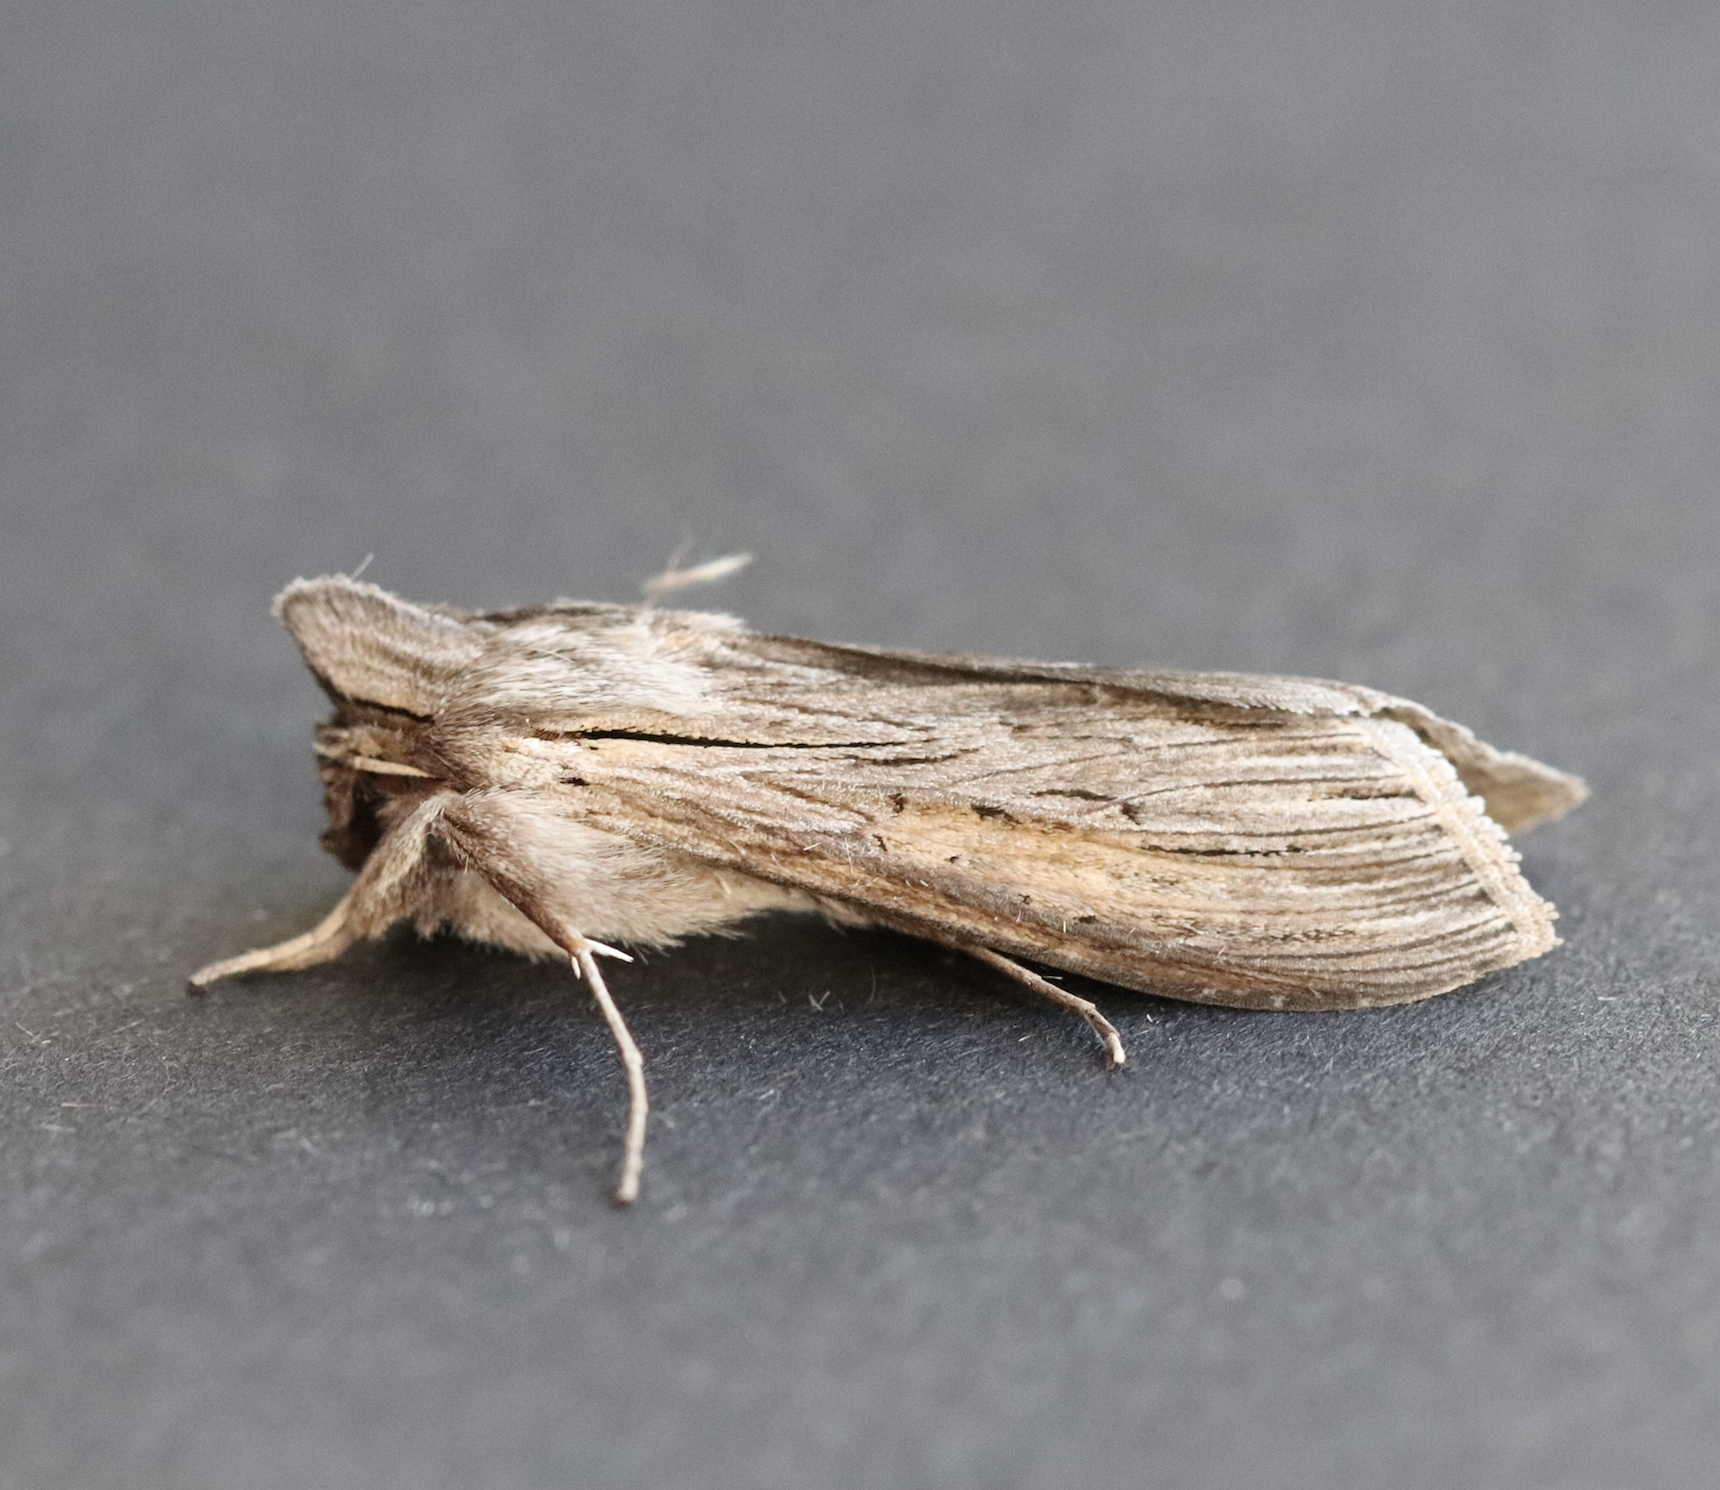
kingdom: Animalia
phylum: Arthropoda
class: Insecta
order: Lepidoptera
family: Noctuidae
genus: Cucullia
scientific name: Cucullia umbratica
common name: Shark
